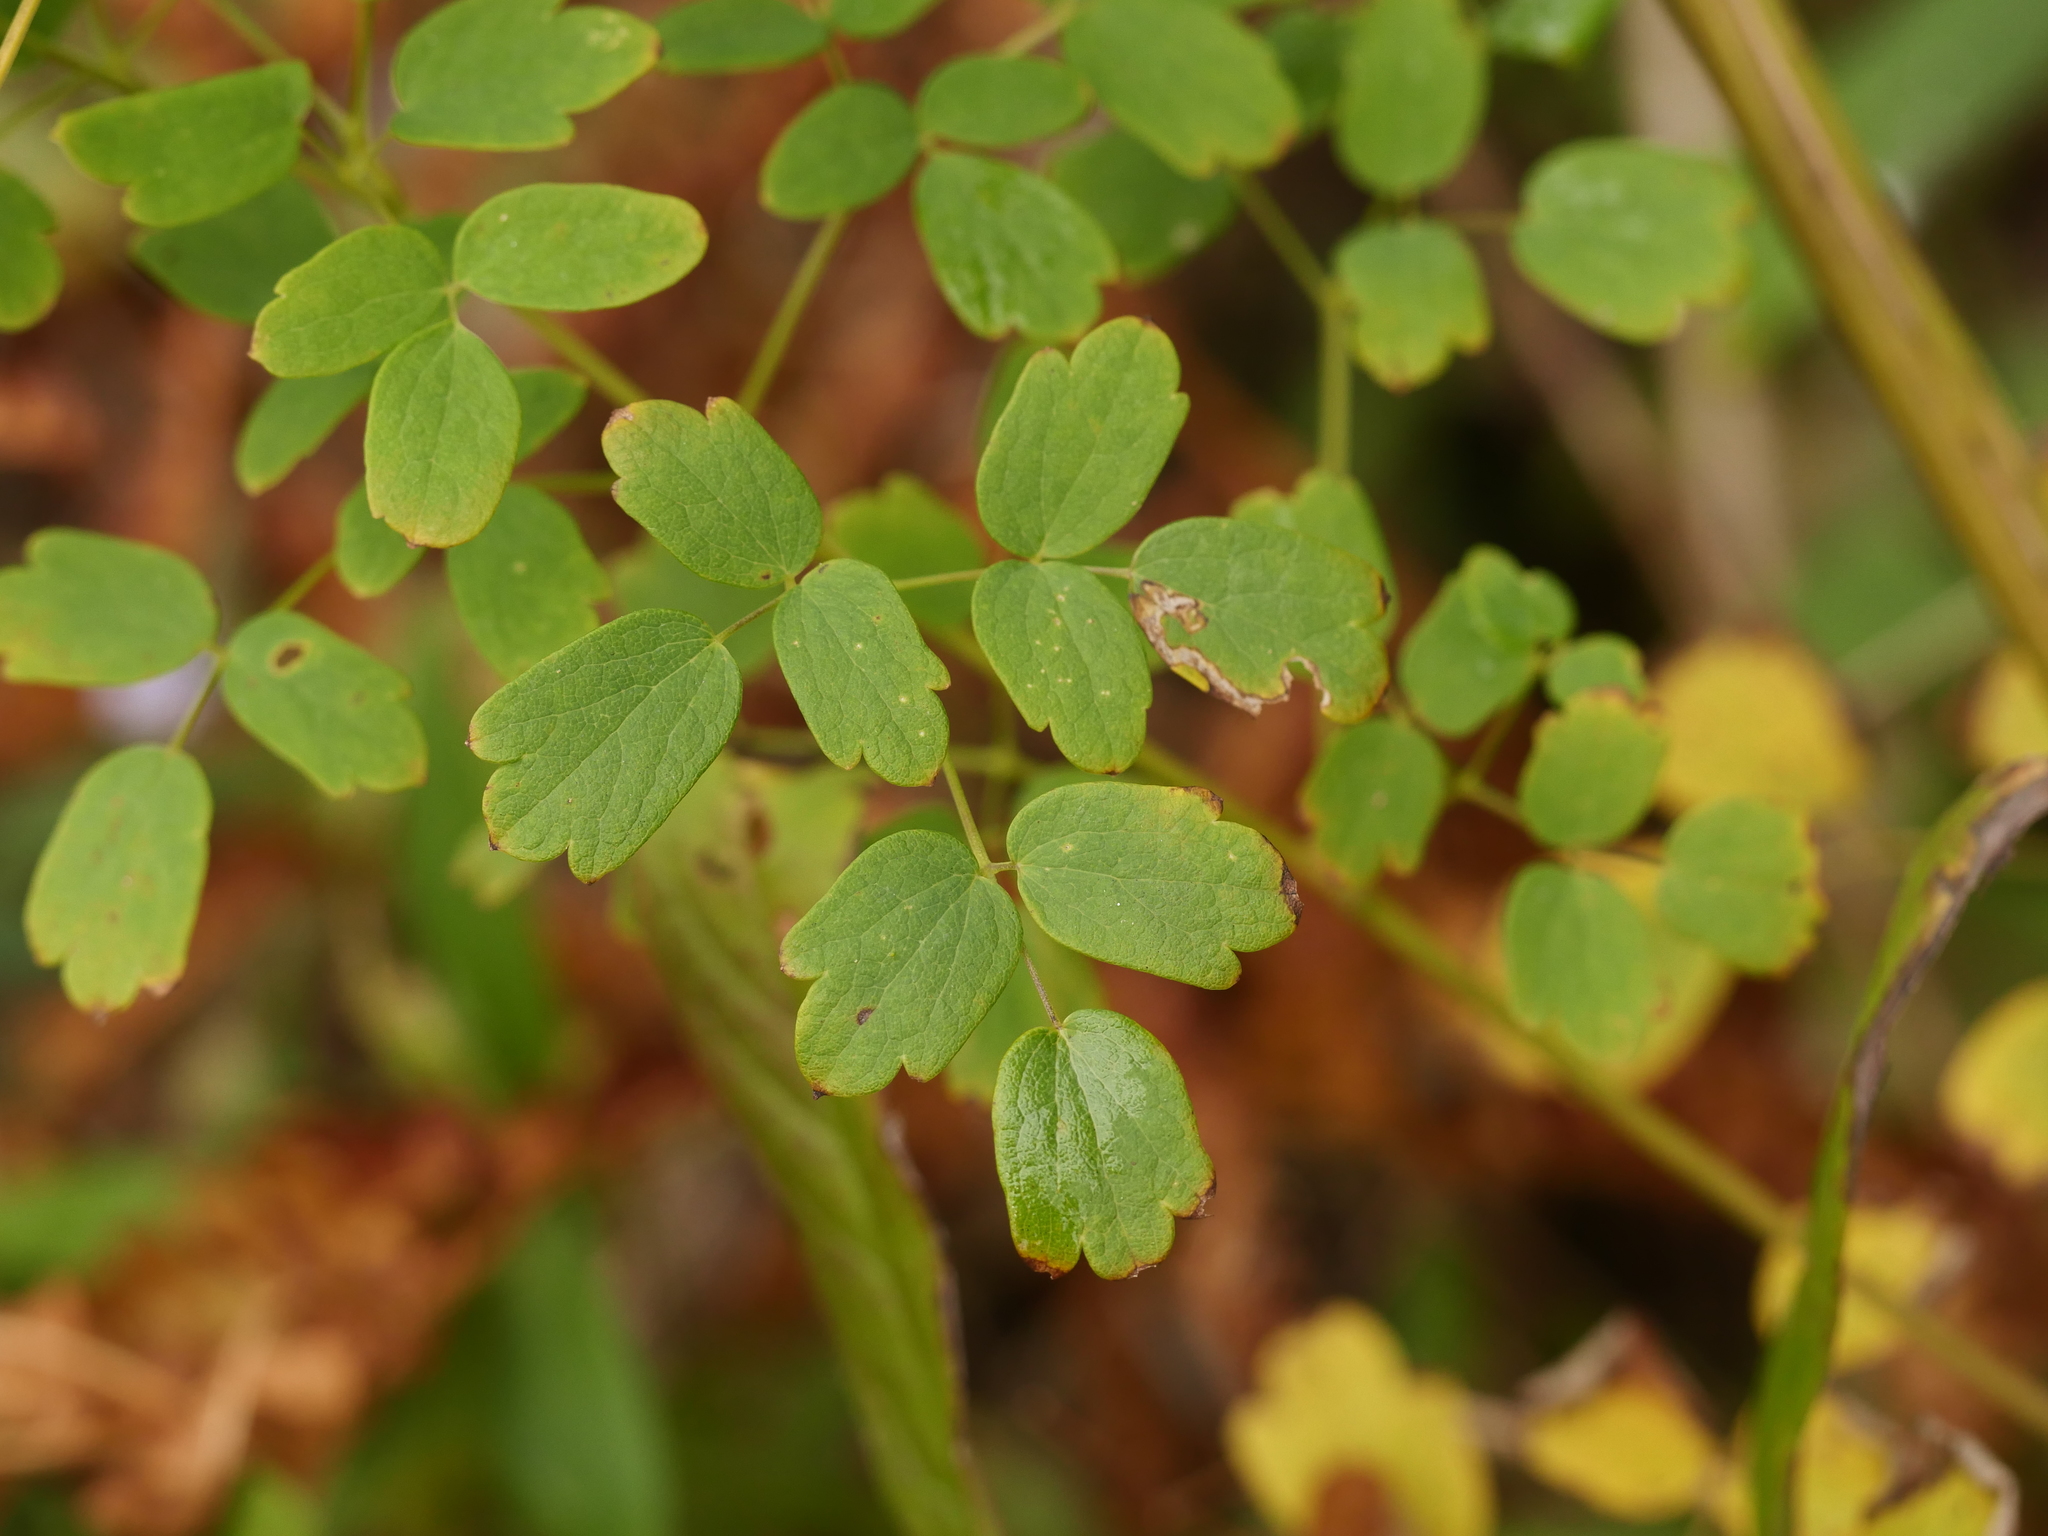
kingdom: Plantae
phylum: Tracheophyta
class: Magnoliopsida
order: Ranunculales
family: Ranunculaceae
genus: Thalictrum
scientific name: Thalictrum pubescens
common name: King-of-the-meadow
